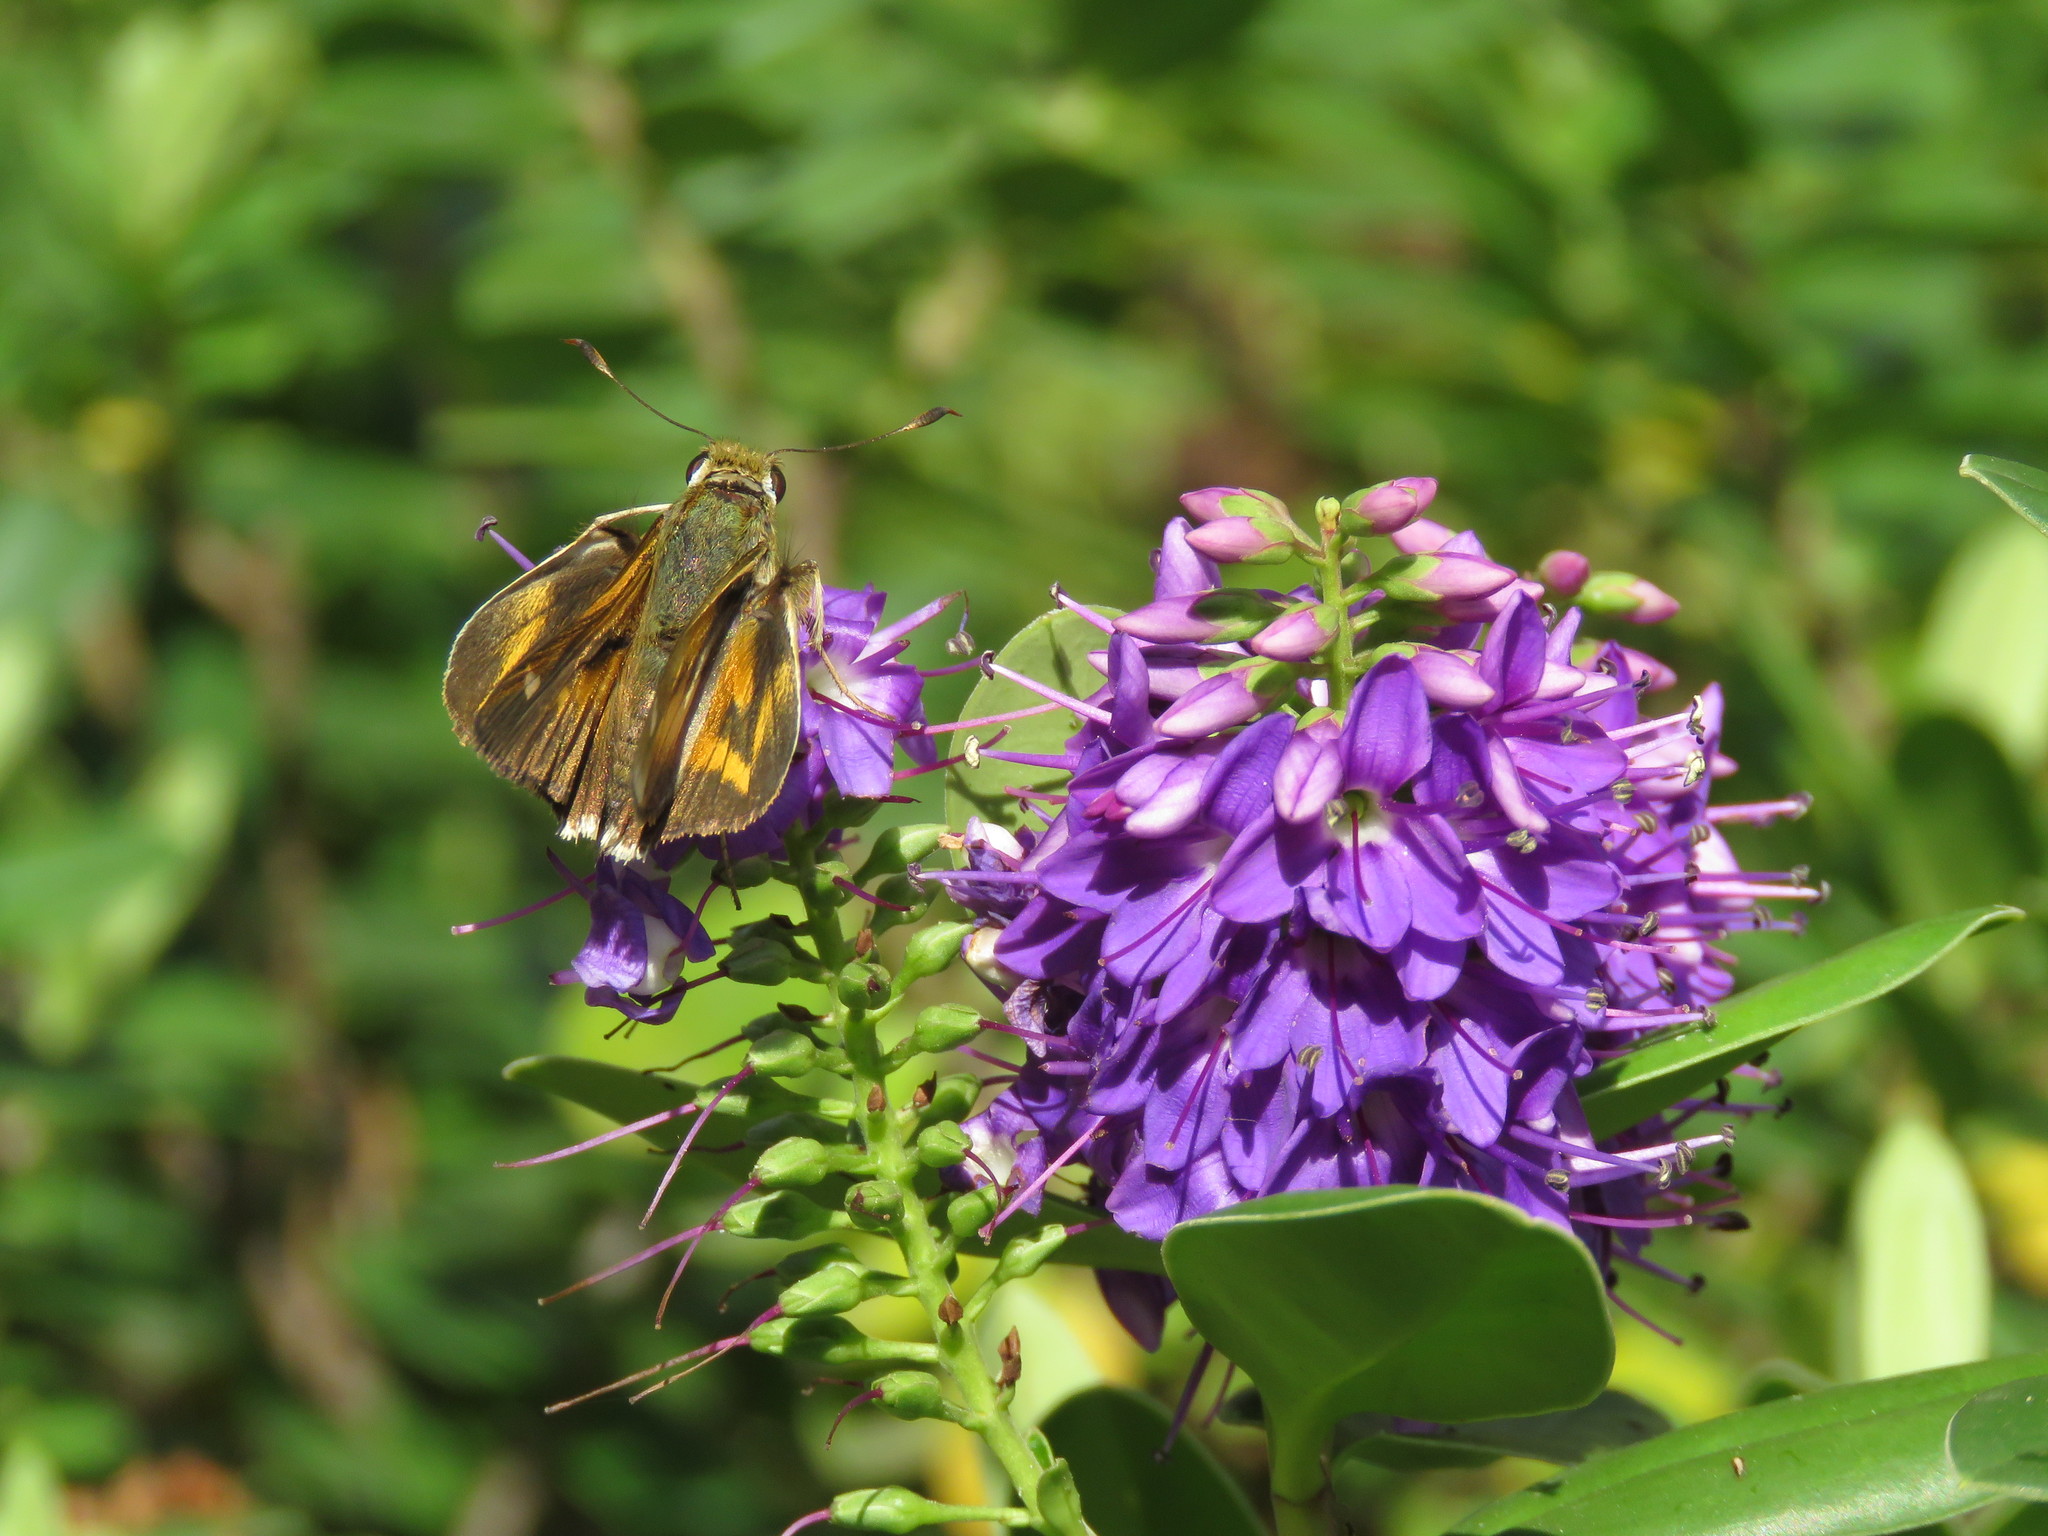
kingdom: Animalia
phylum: Arthropoda
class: Insecta
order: Lepidoptera
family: Hesperiidae
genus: Serdis
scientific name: Serdis venezuelae
